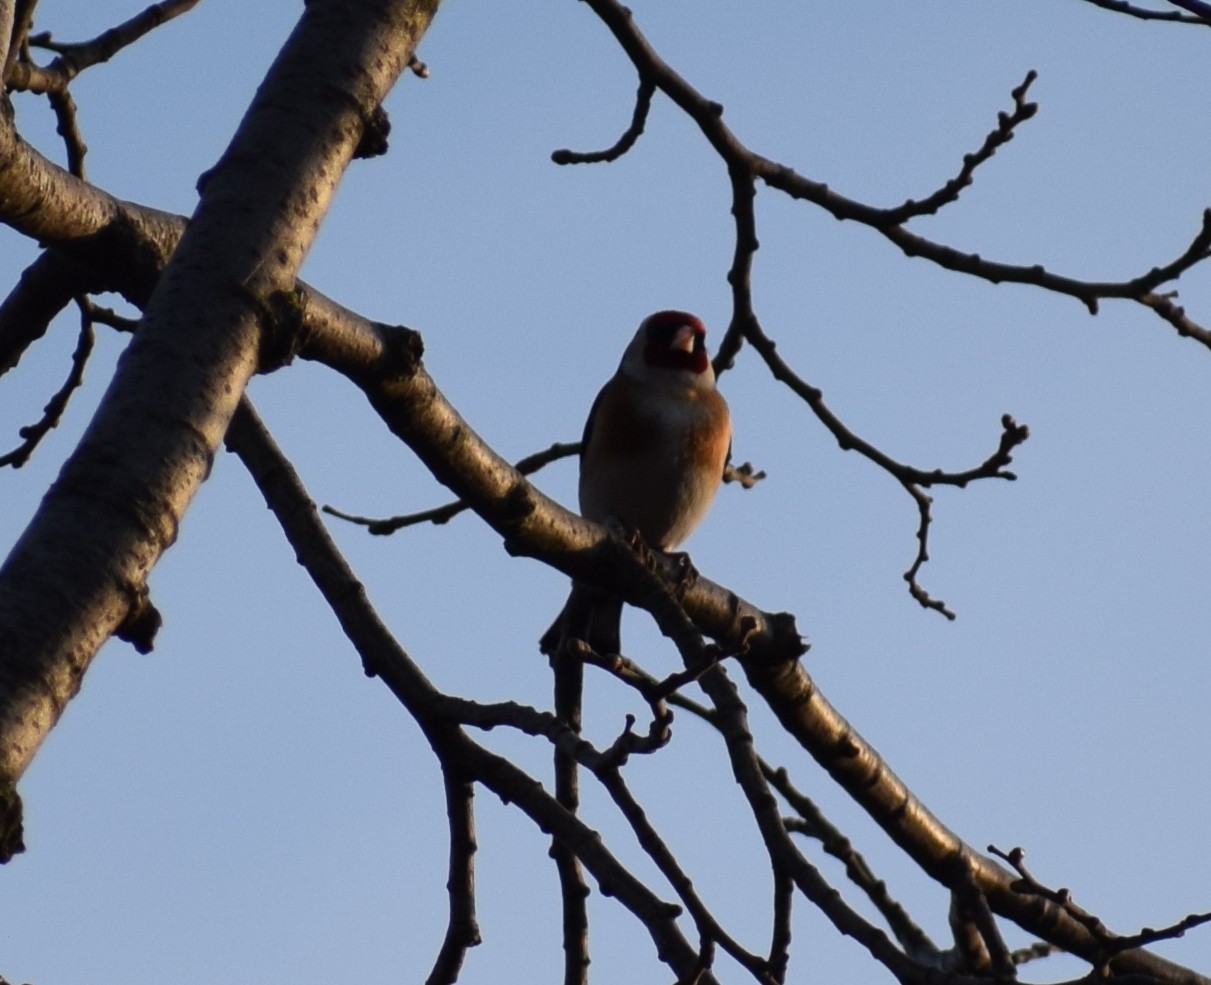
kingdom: Animalia
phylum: Chordata
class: Aves
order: Passeriformes
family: Fringillidae
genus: Carduelis
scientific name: Carduelis carduelis
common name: European goldfinch
